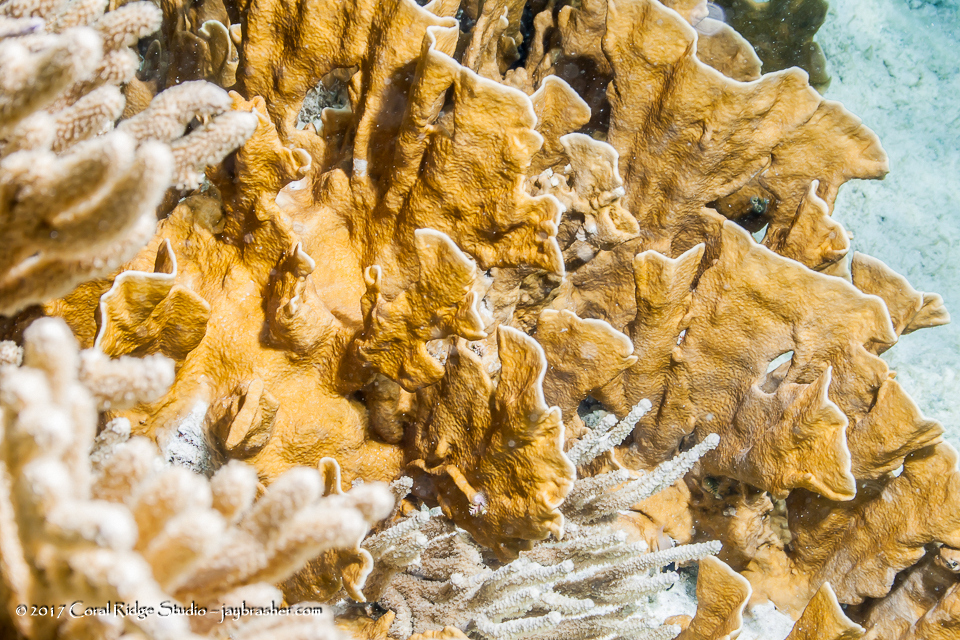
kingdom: Animalia
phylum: Cnidaria
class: Hydrozoa
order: Anthoathecata
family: Milleporidae
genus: Millepora
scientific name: Millepora complanata
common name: Bladed fire coral
